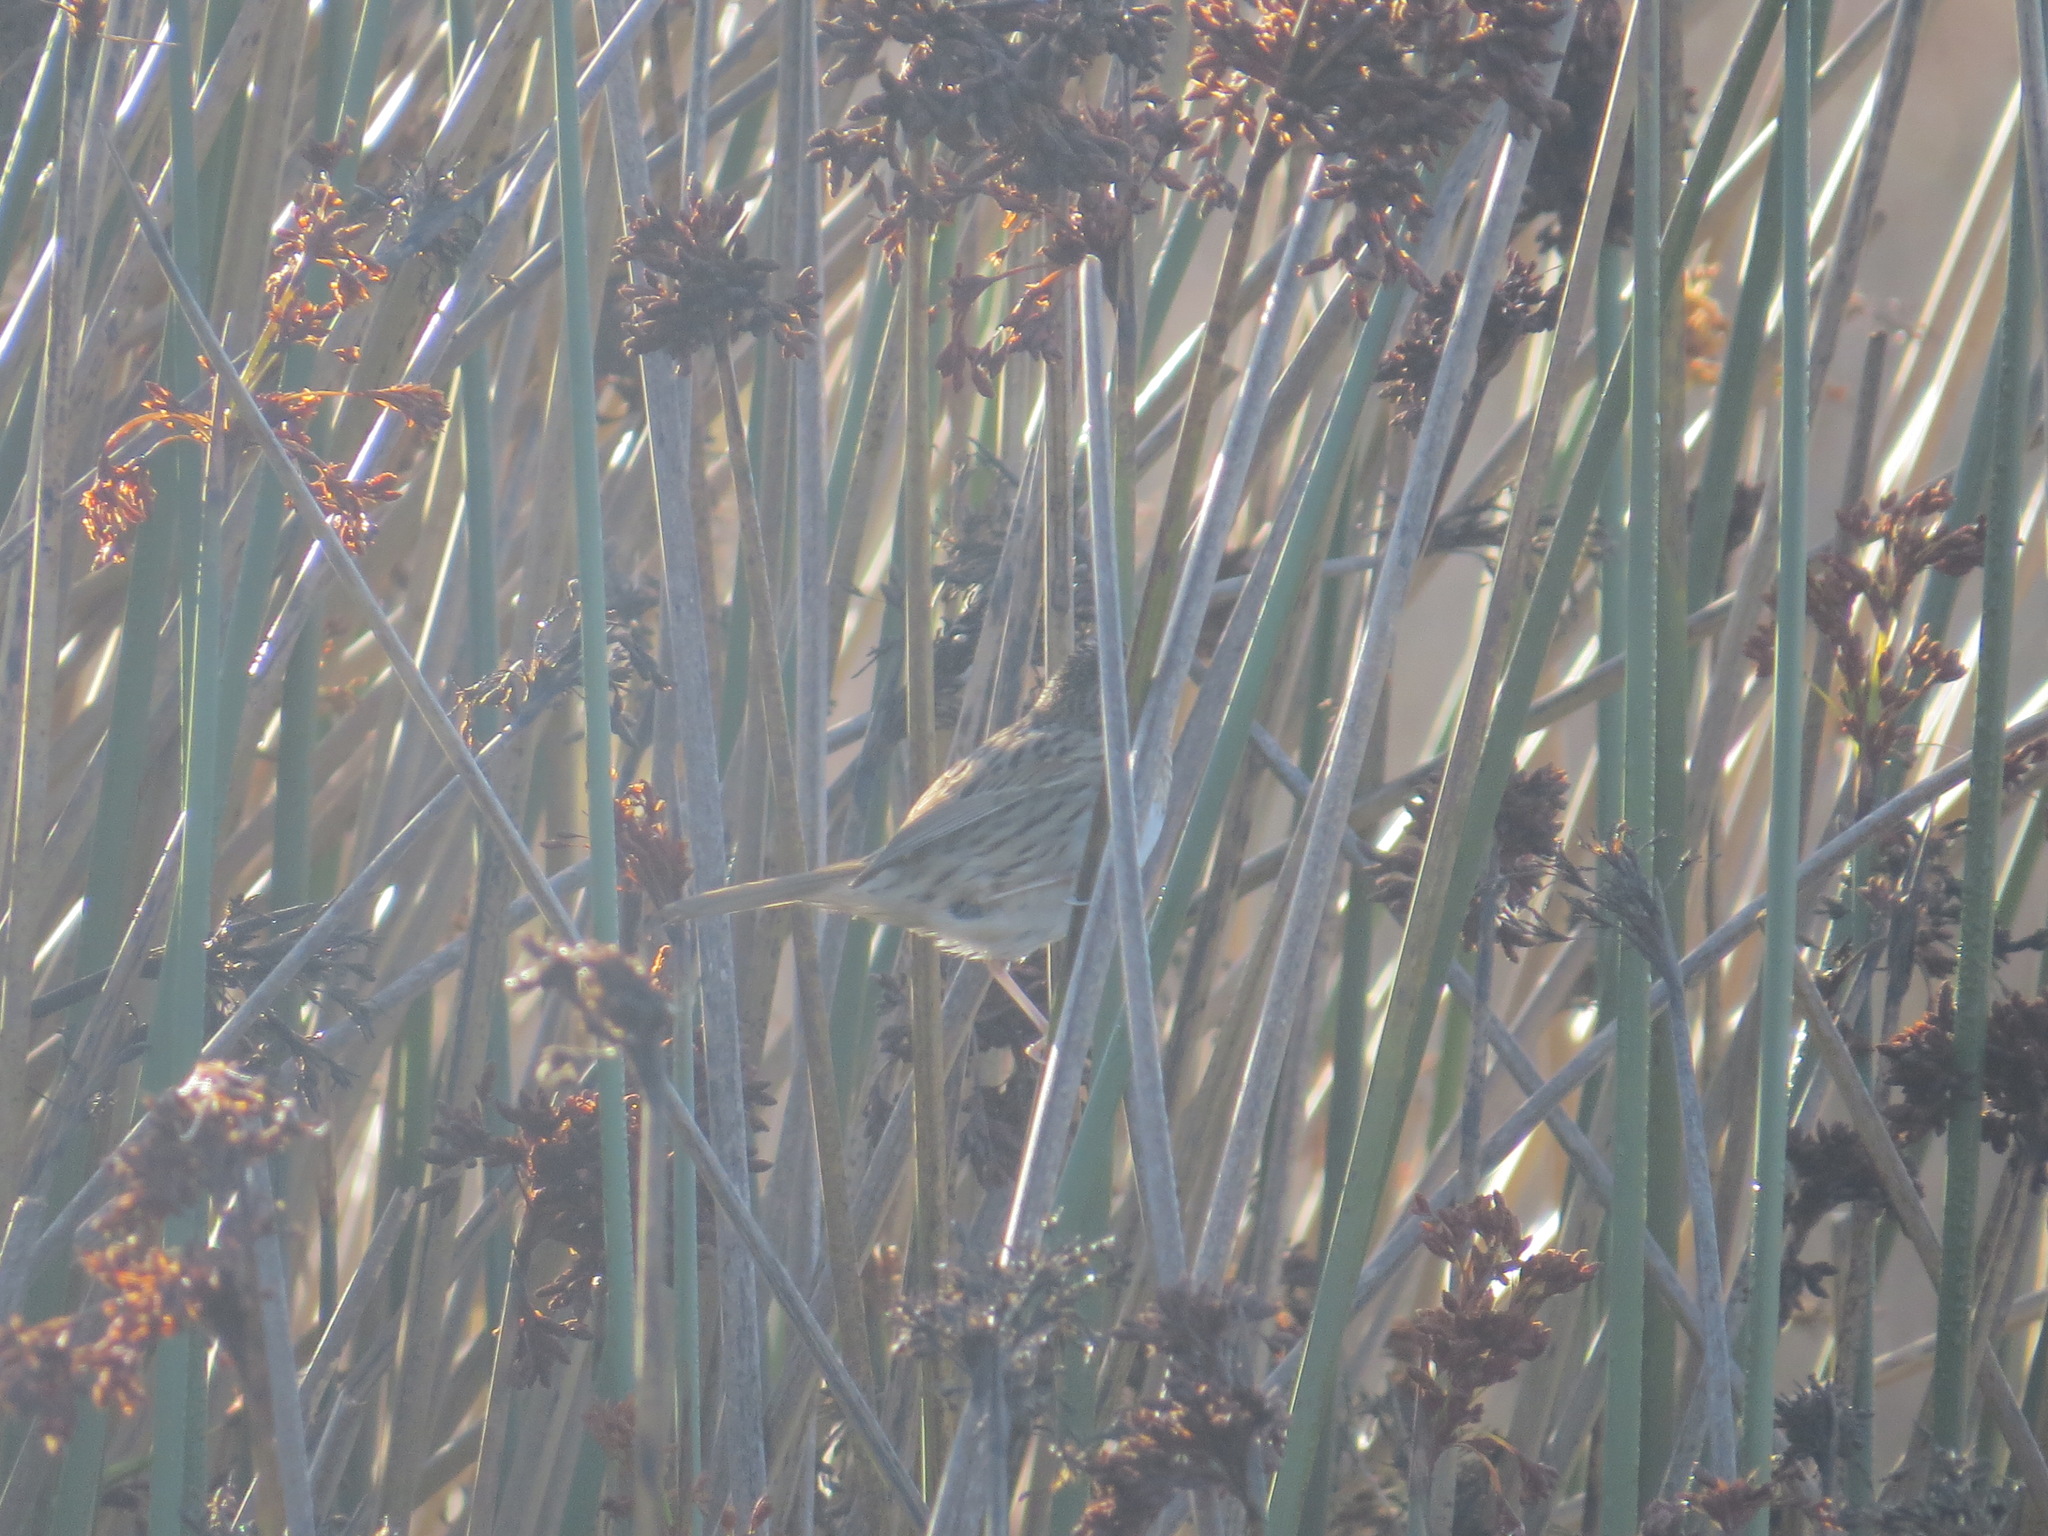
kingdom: Animalia
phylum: Chordata
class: Aves
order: Passeriformes
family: Passerellidae
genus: Melospiza
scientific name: Melospiza lincolnii
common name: Lincoln's sparrow
